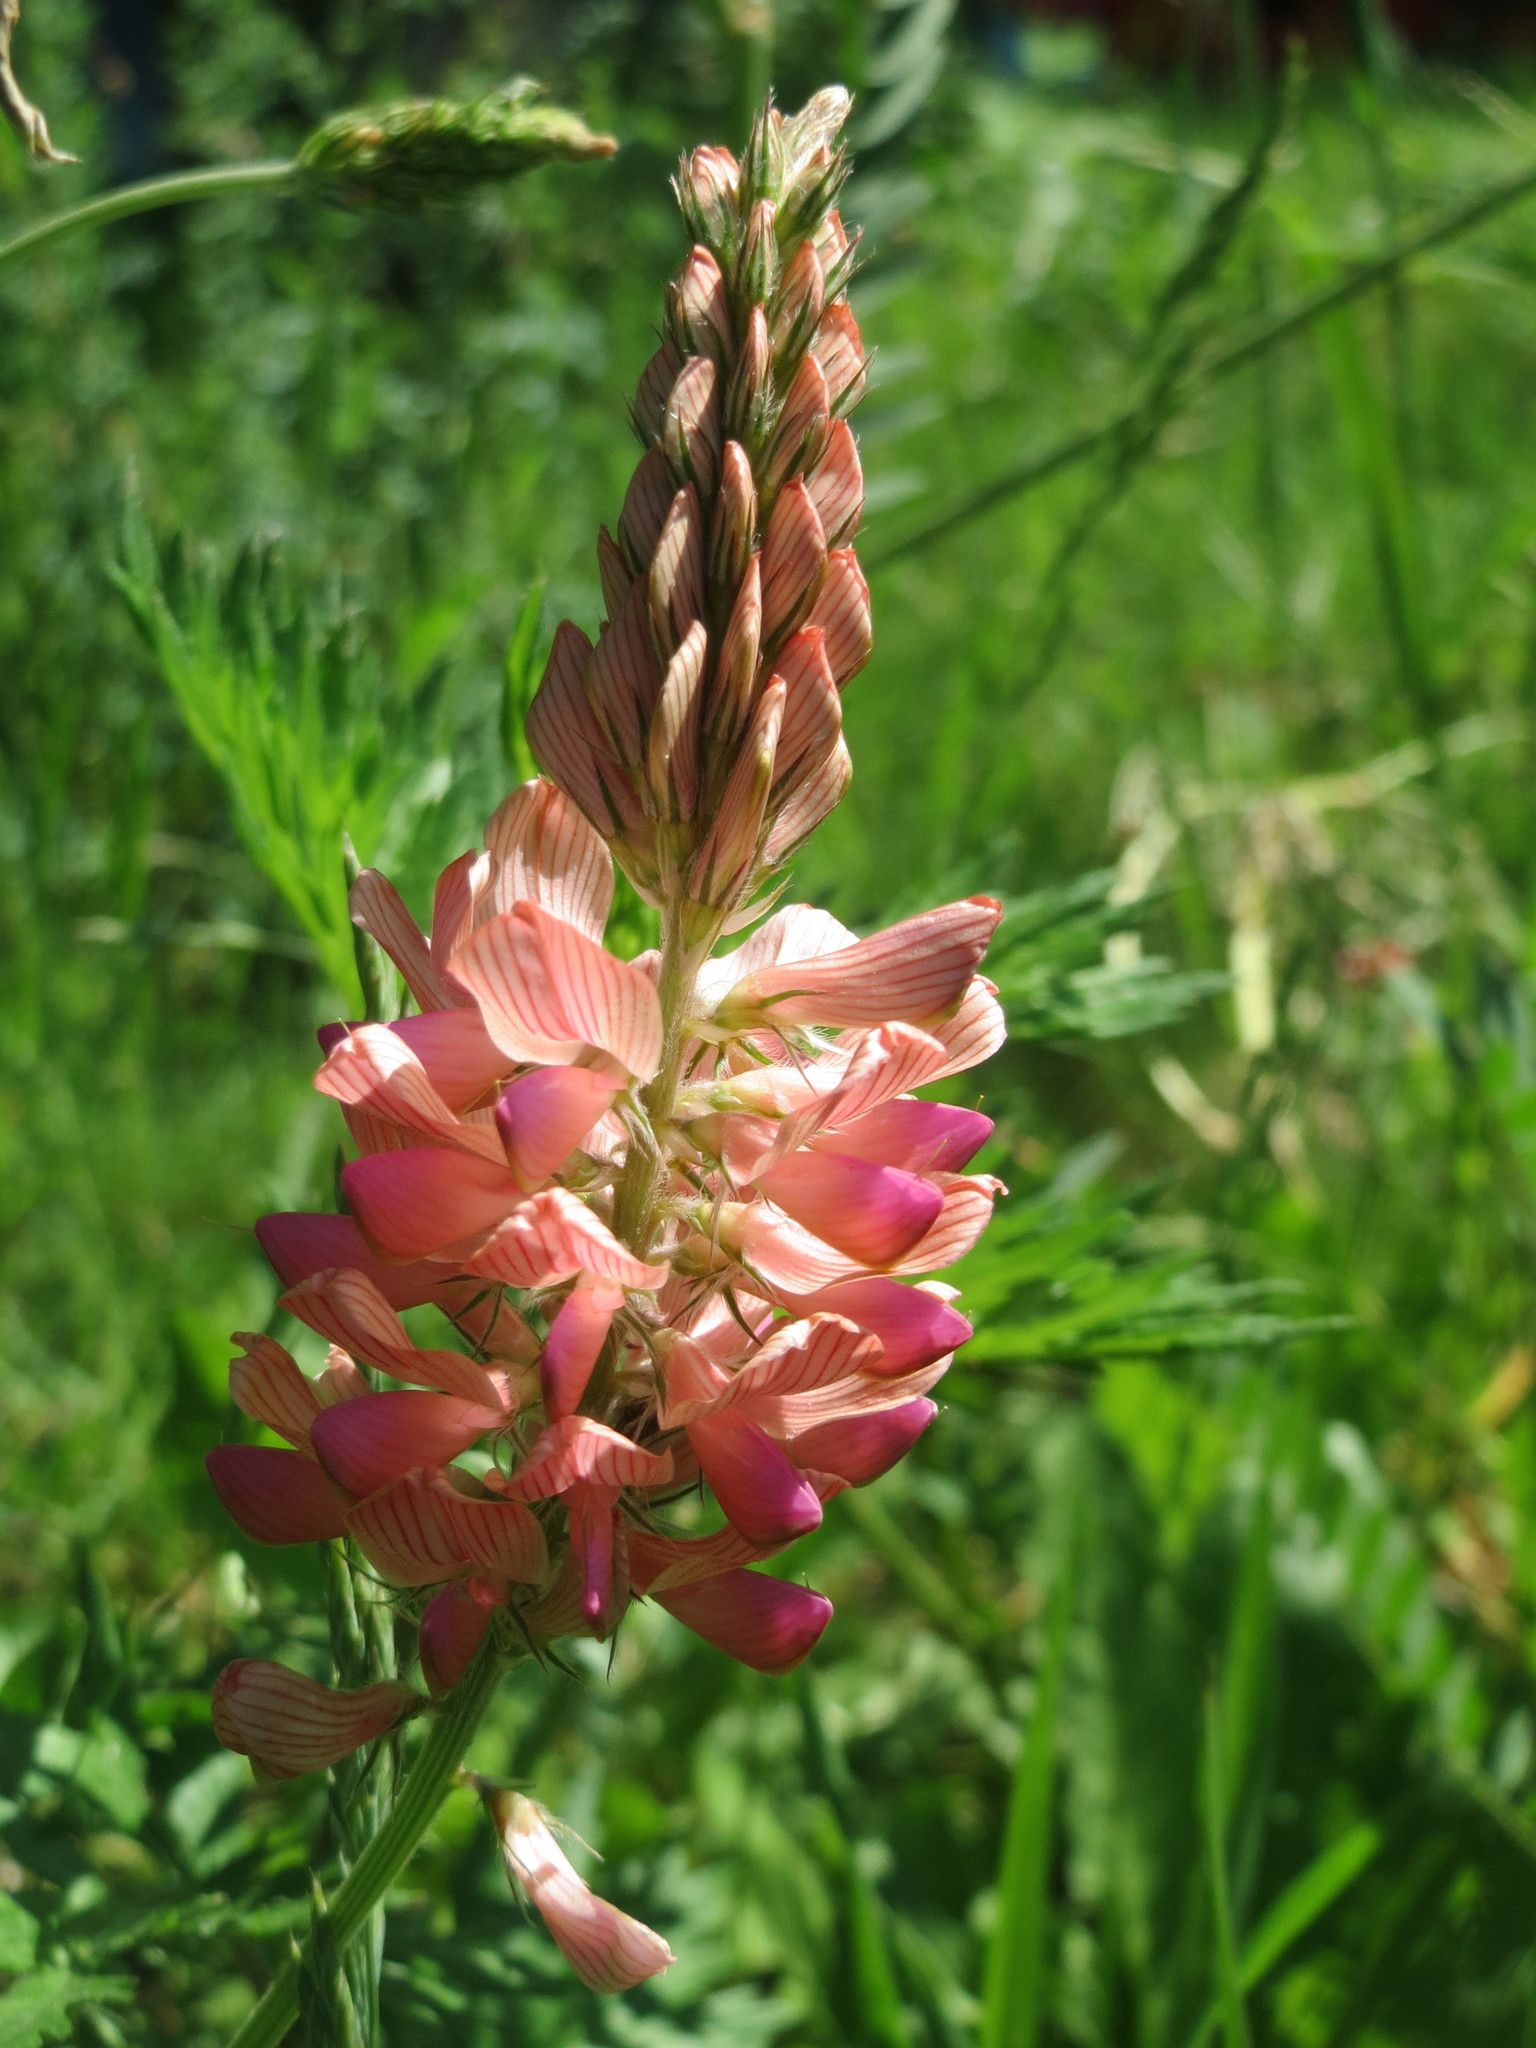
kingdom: Plantae
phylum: Tracheophyta
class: Magnoliopsida
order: Fabales
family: Fabaceae
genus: Onobrychis
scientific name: Onobrychis viciifolia
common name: Sainfoin
